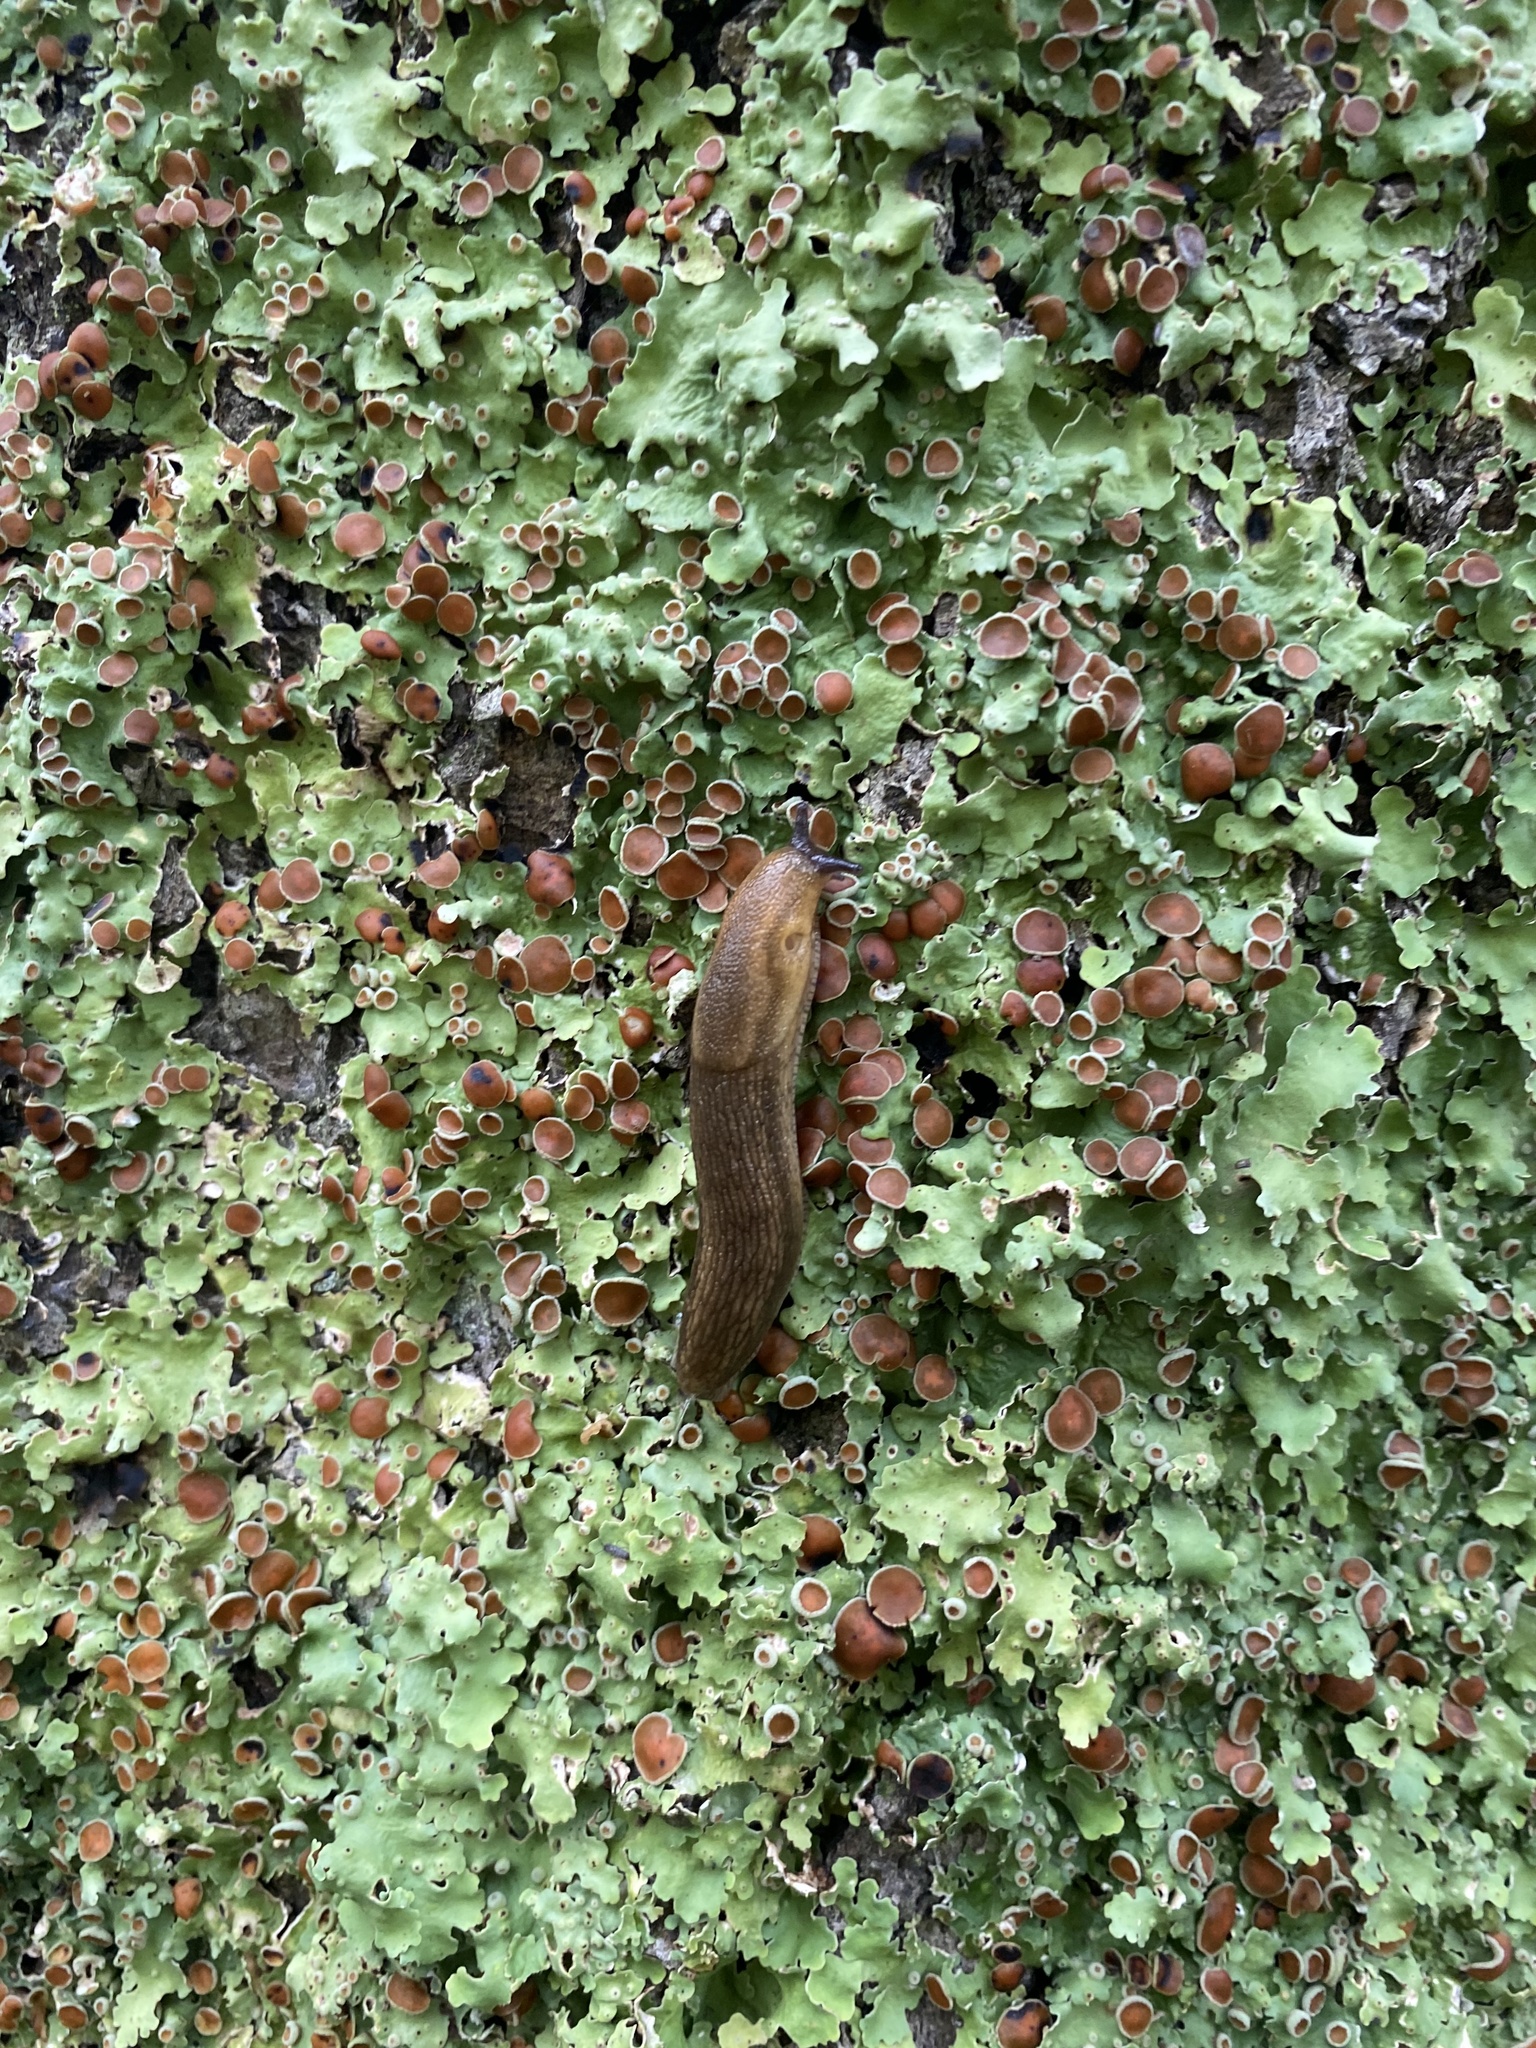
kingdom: Fungi
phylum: Ascomycota
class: Lecanoromycetes
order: Peltigerales
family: Lobariaceae
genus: Ricasolia
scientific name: Ricasolia quercizans
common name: Smooth lungwort
